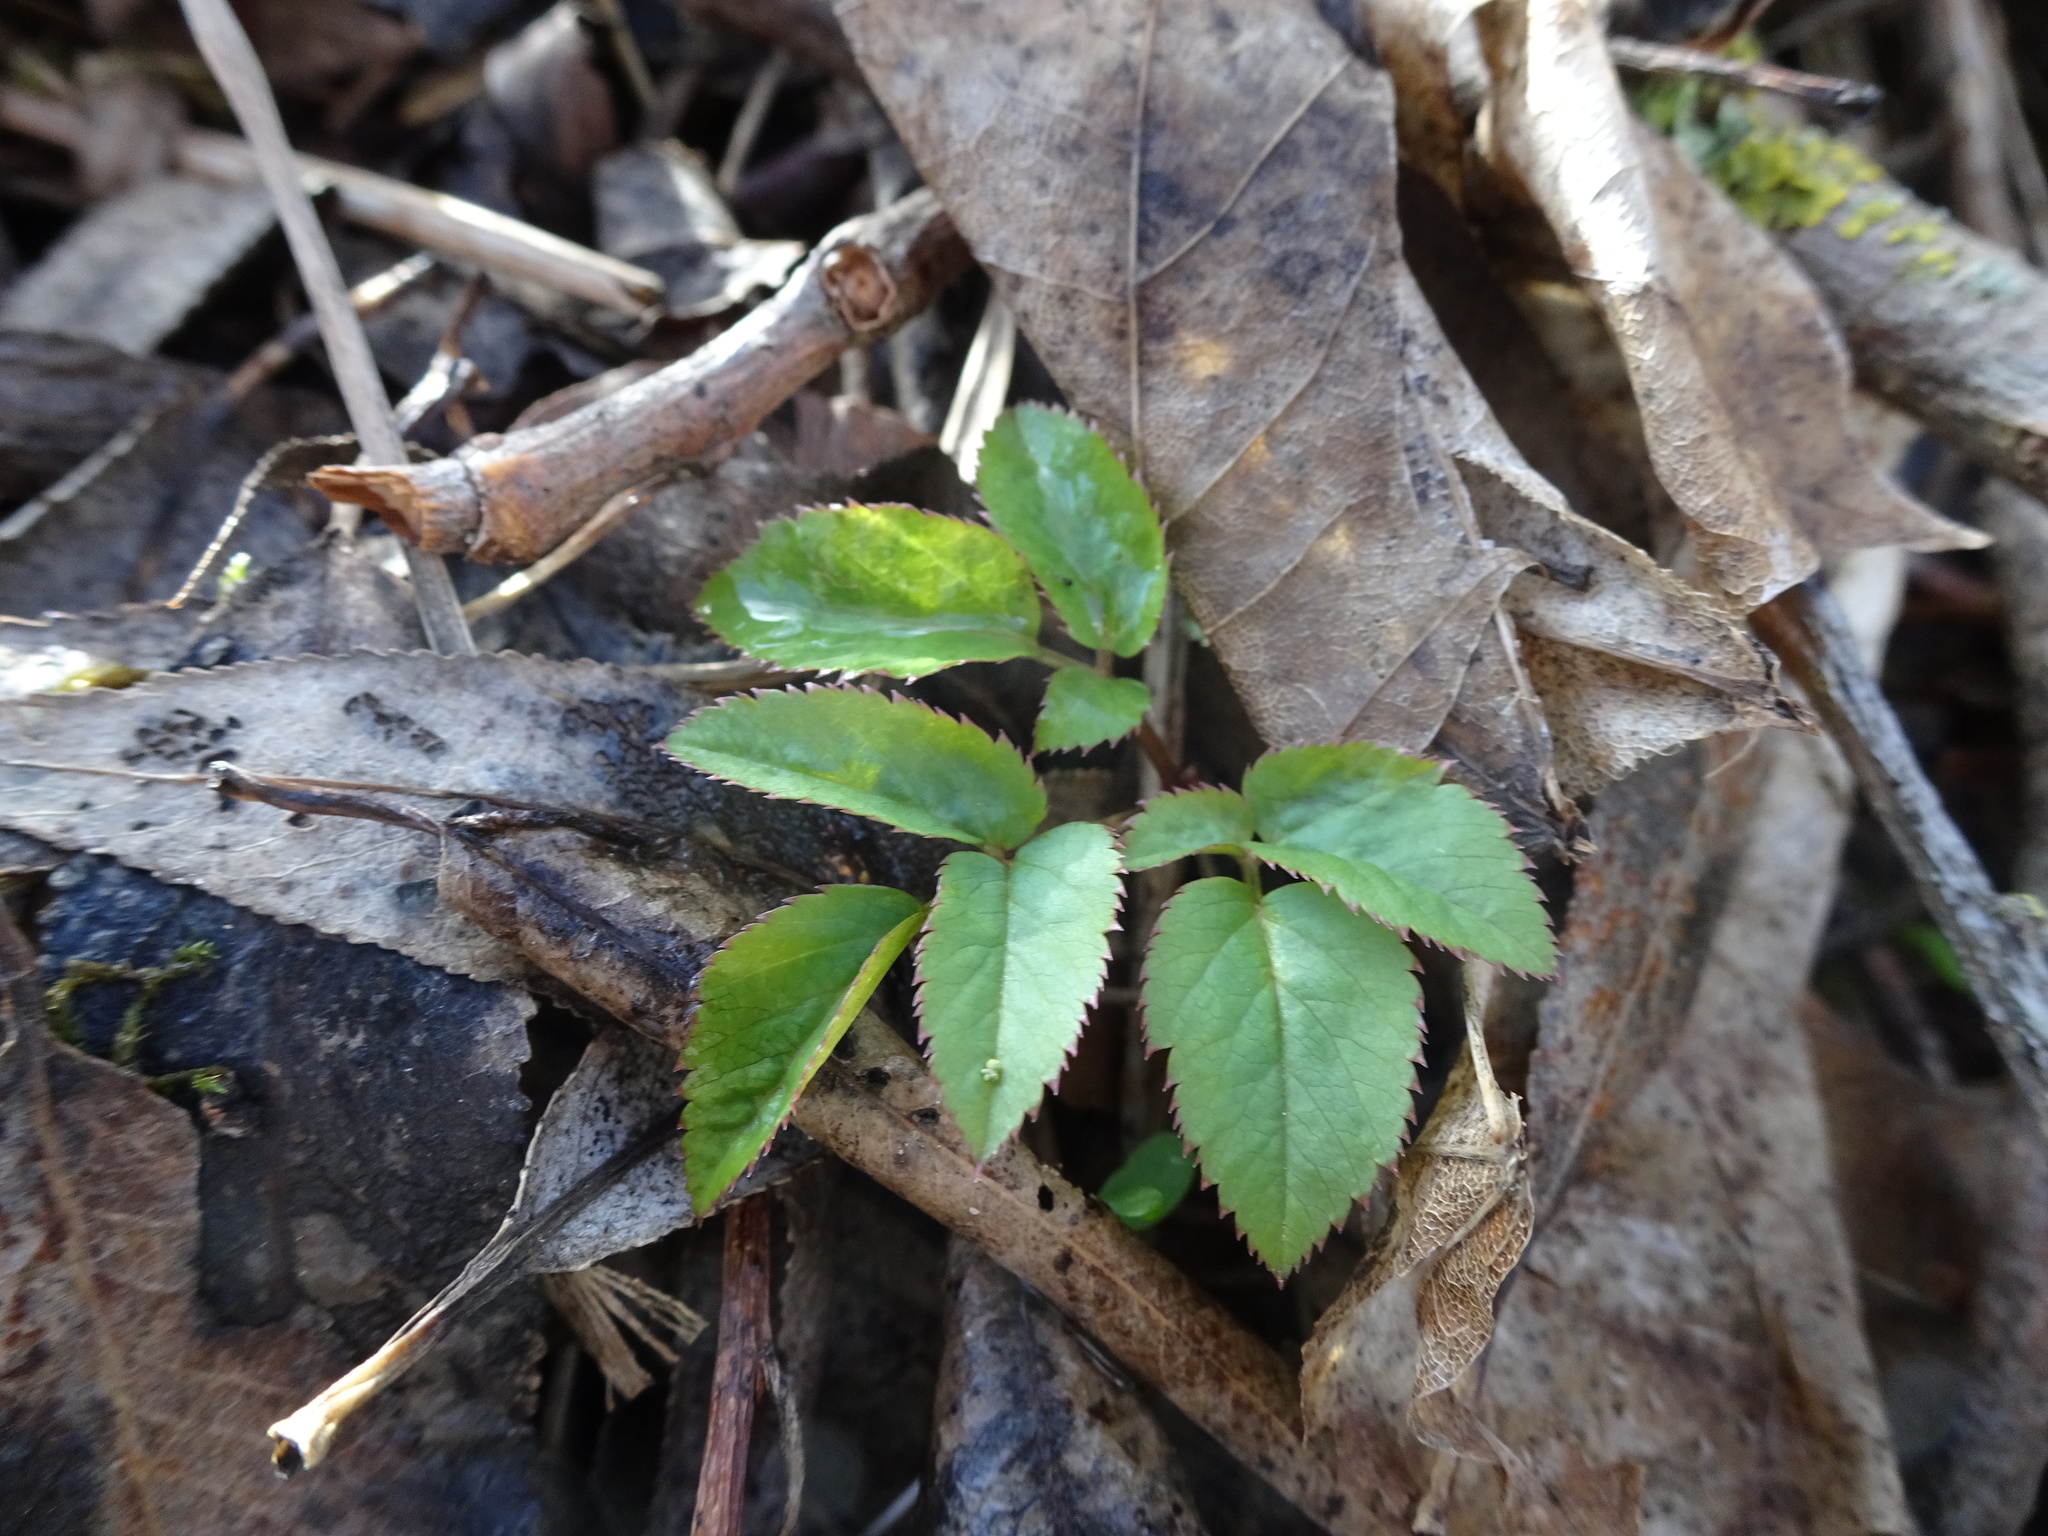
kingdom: Plantae
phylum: Tracheophyta
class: Magnoliopsida
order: Apiales
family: Apiaceae
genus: Aegopodium
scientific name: Aegopodium podagraria
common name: Ground-elder
